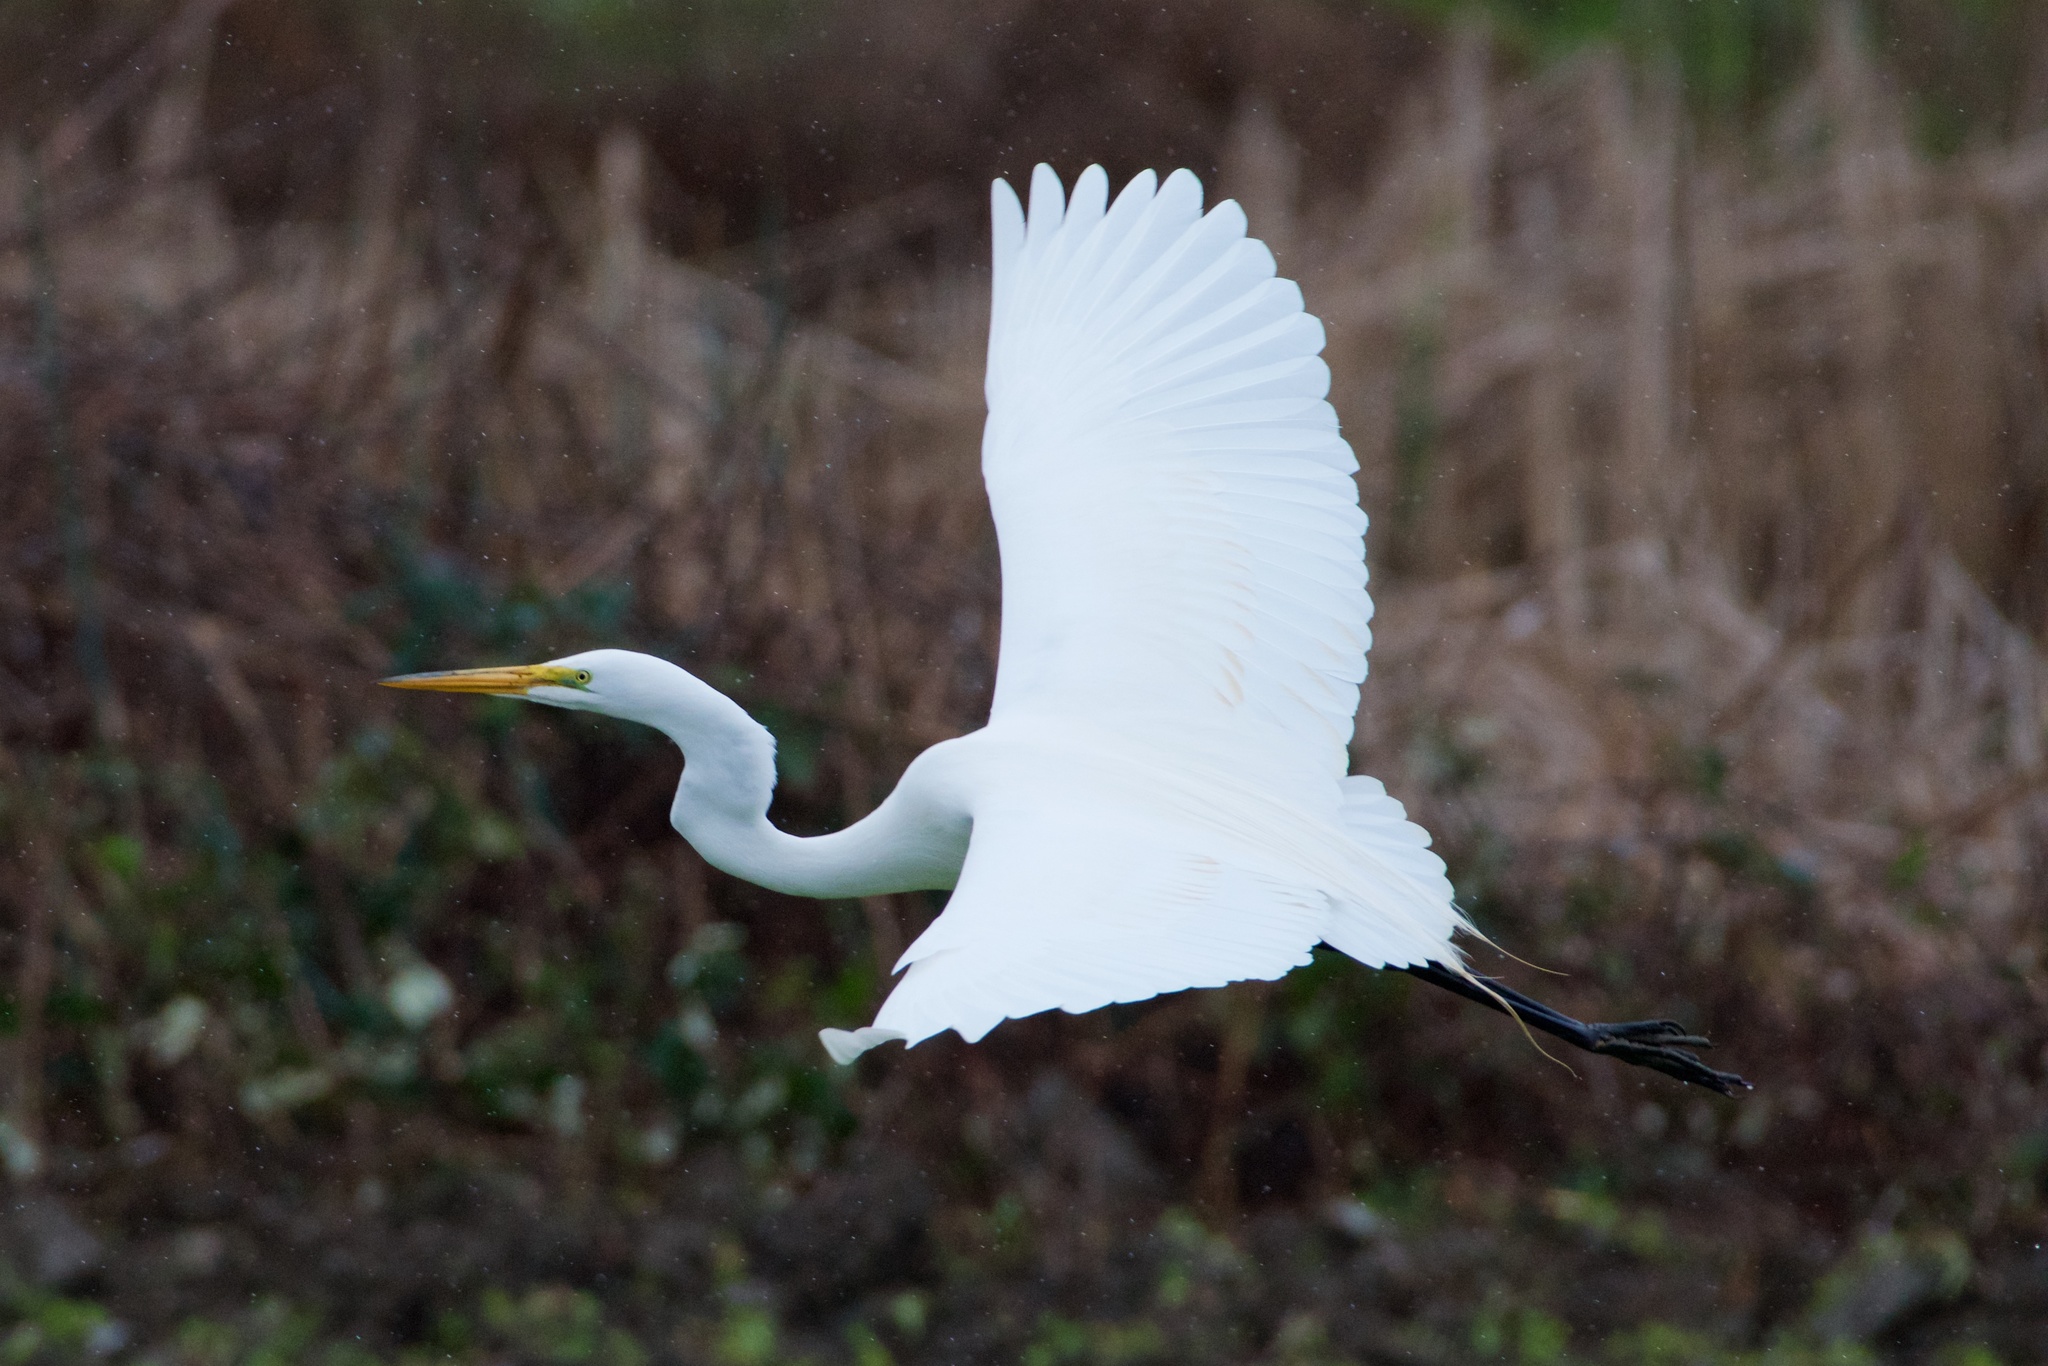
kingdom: Animalia
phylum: Chordata
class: Aves
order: Pelecaniformes
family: Ardeidae
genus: Ardea
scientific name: Ardea alba
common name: Great egret
